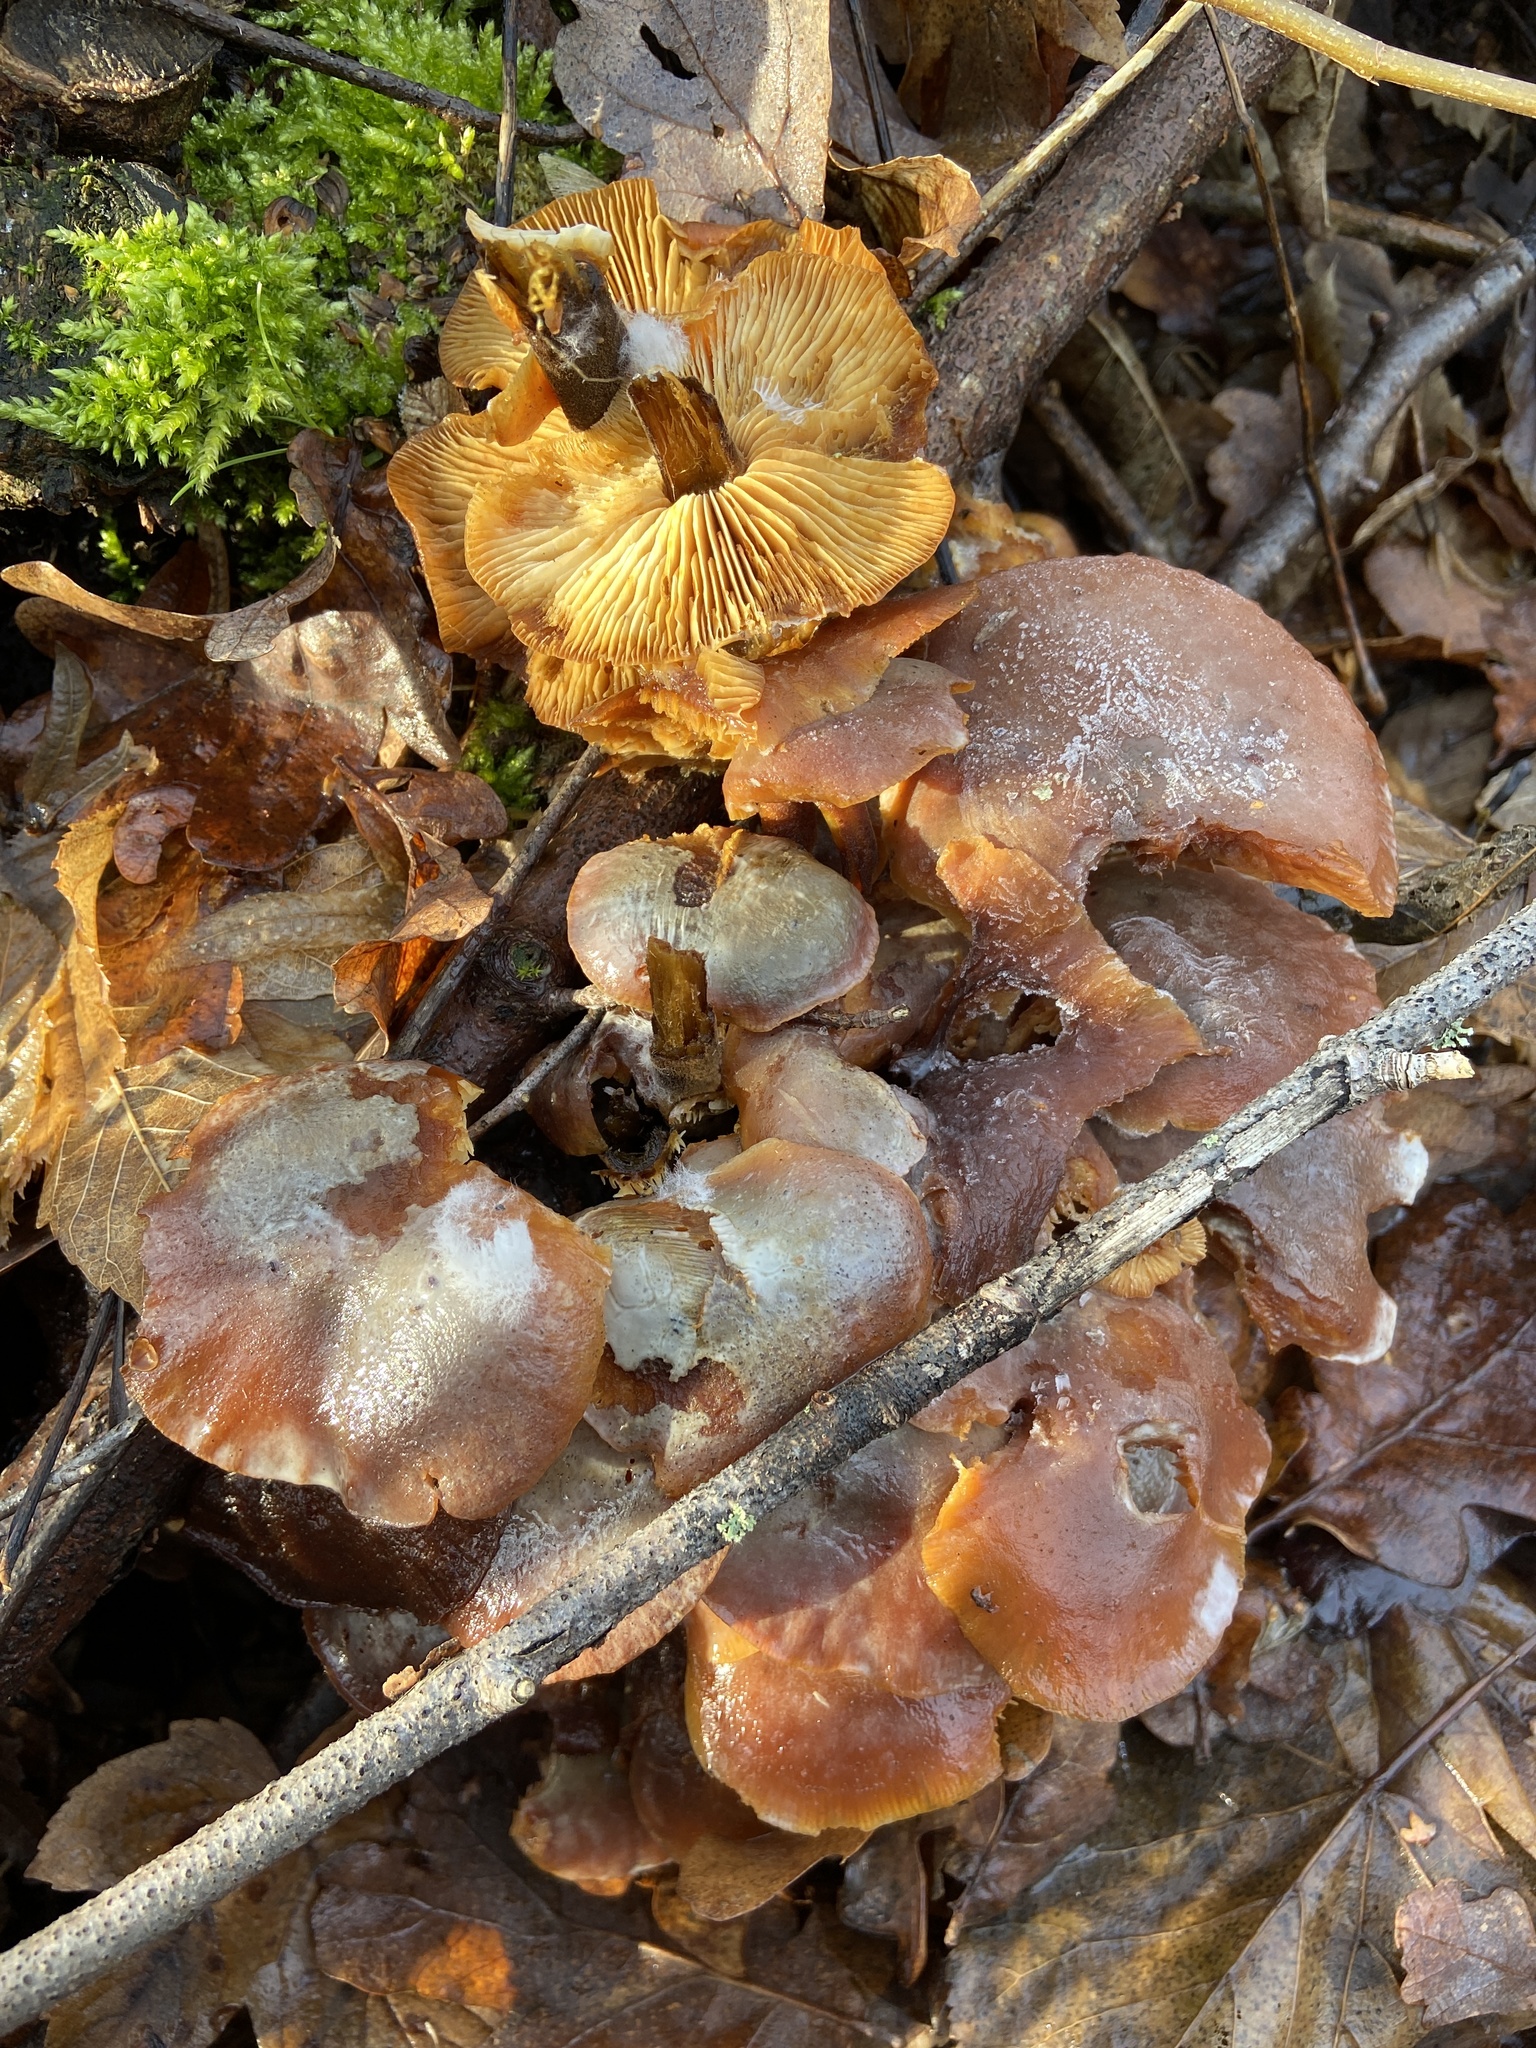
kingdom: Fungi
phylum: Basidiomycota
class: Agaricomycetes
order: Agaricales
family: Physalacriaceae
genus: Flammulina
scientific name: Flammulina
